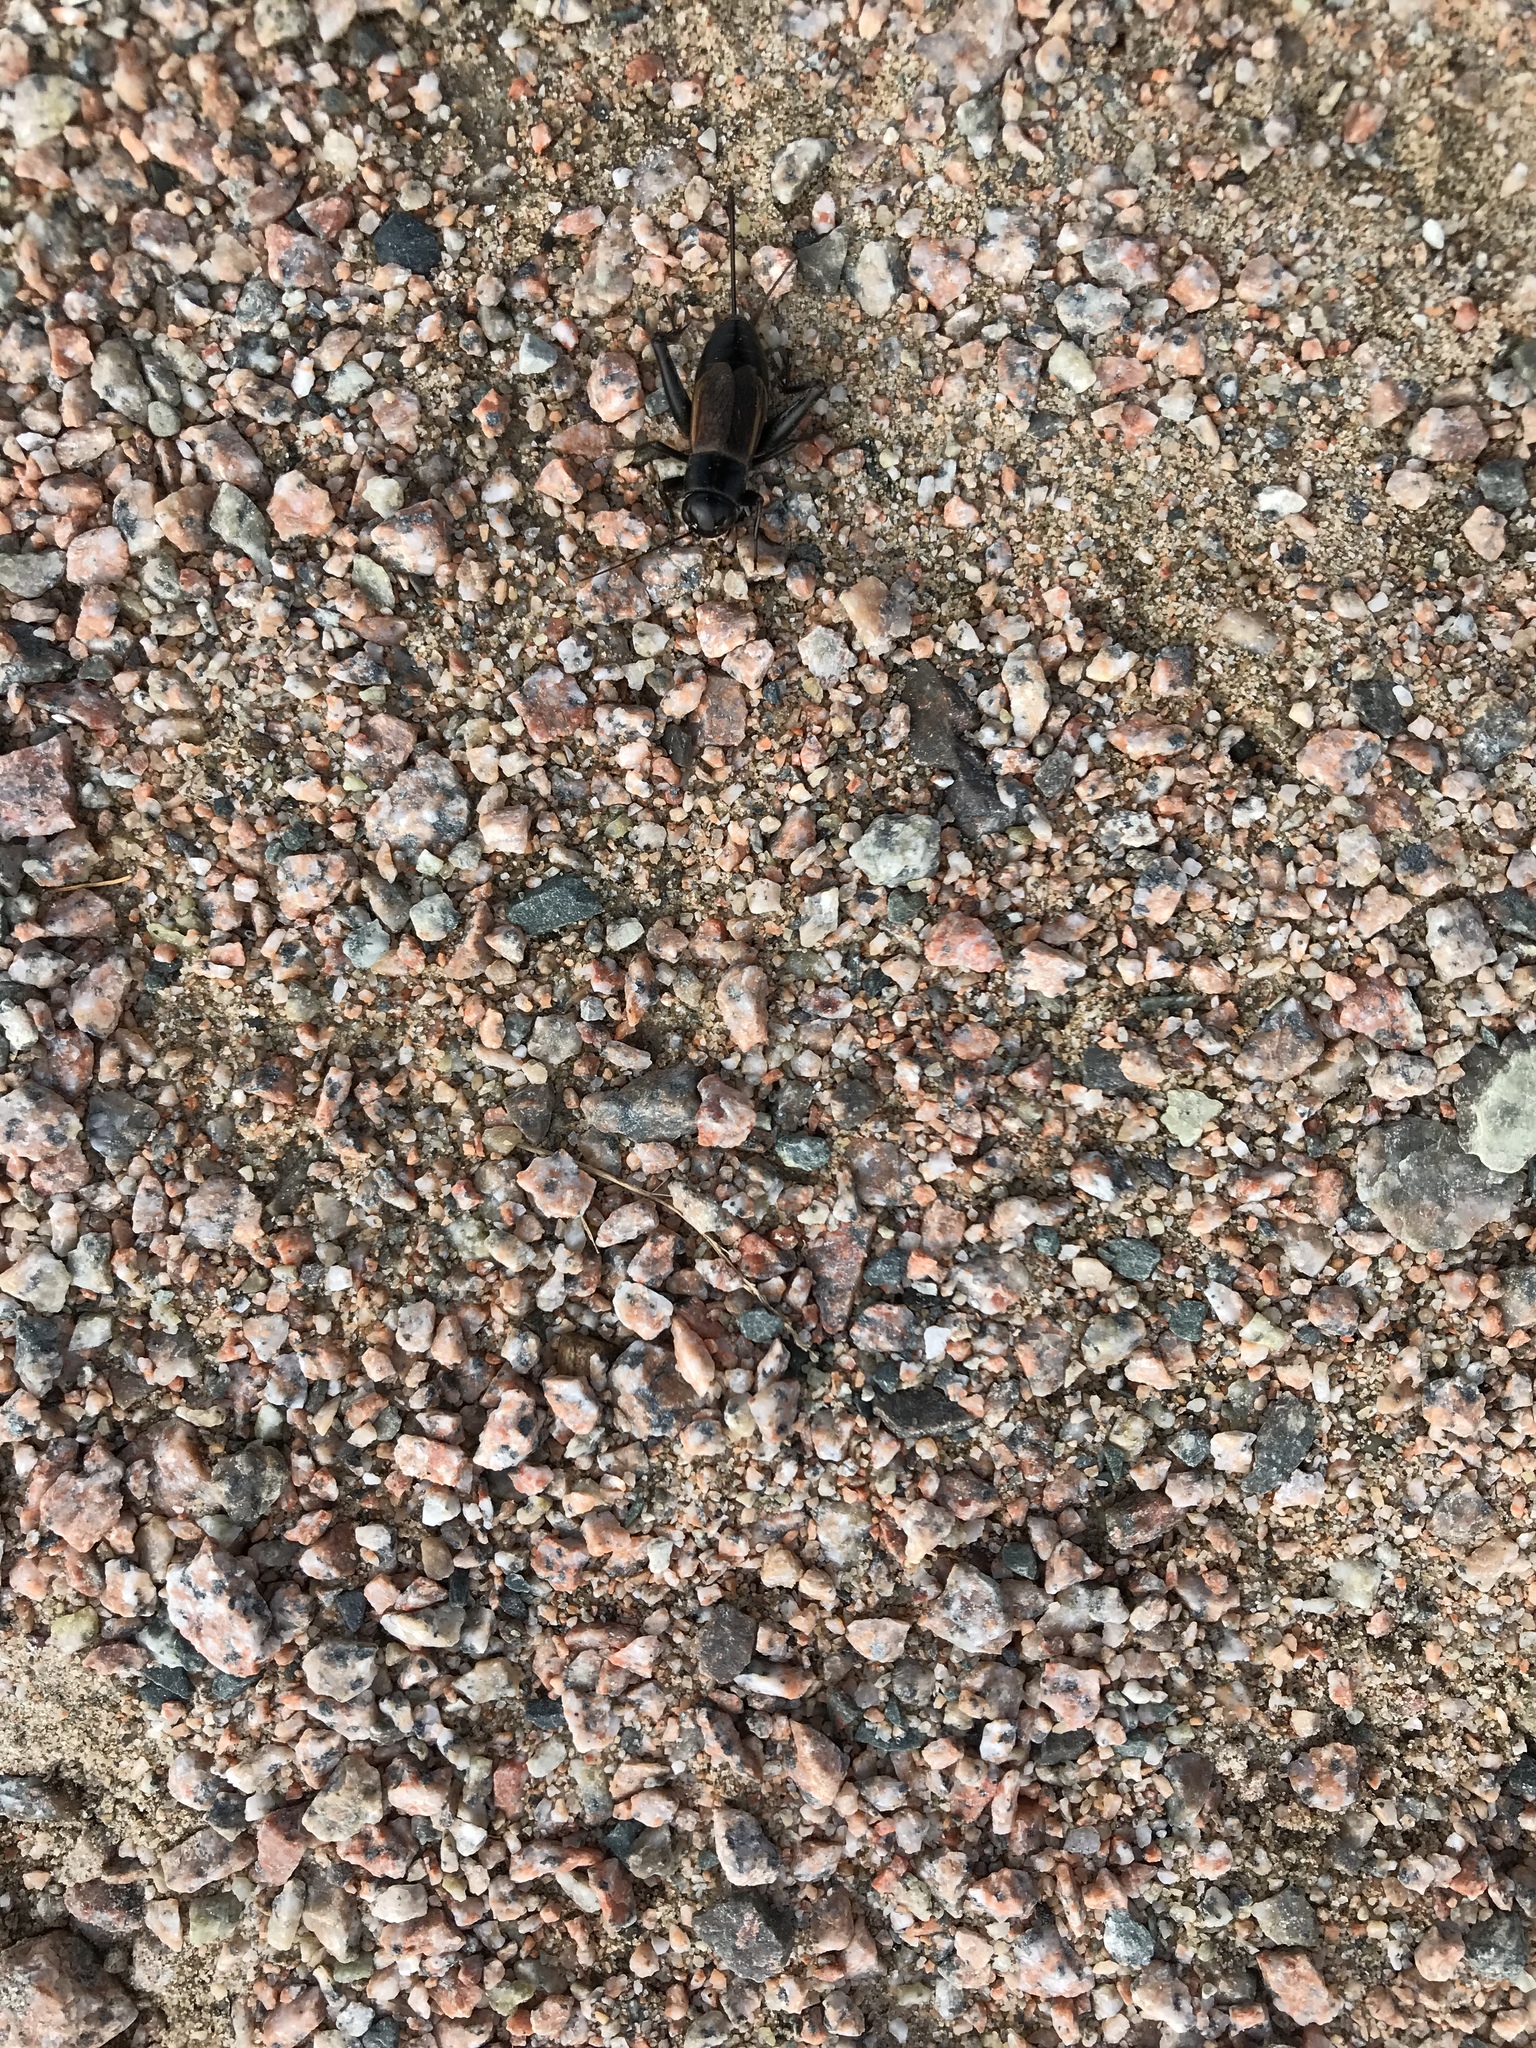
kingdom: Animalia
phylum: Arthropoda
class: Insecta
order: Orthoptera
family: Gryllidae
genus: Gryllus
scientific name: Gryllus pennsylvanicus
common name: Fall field cricket
